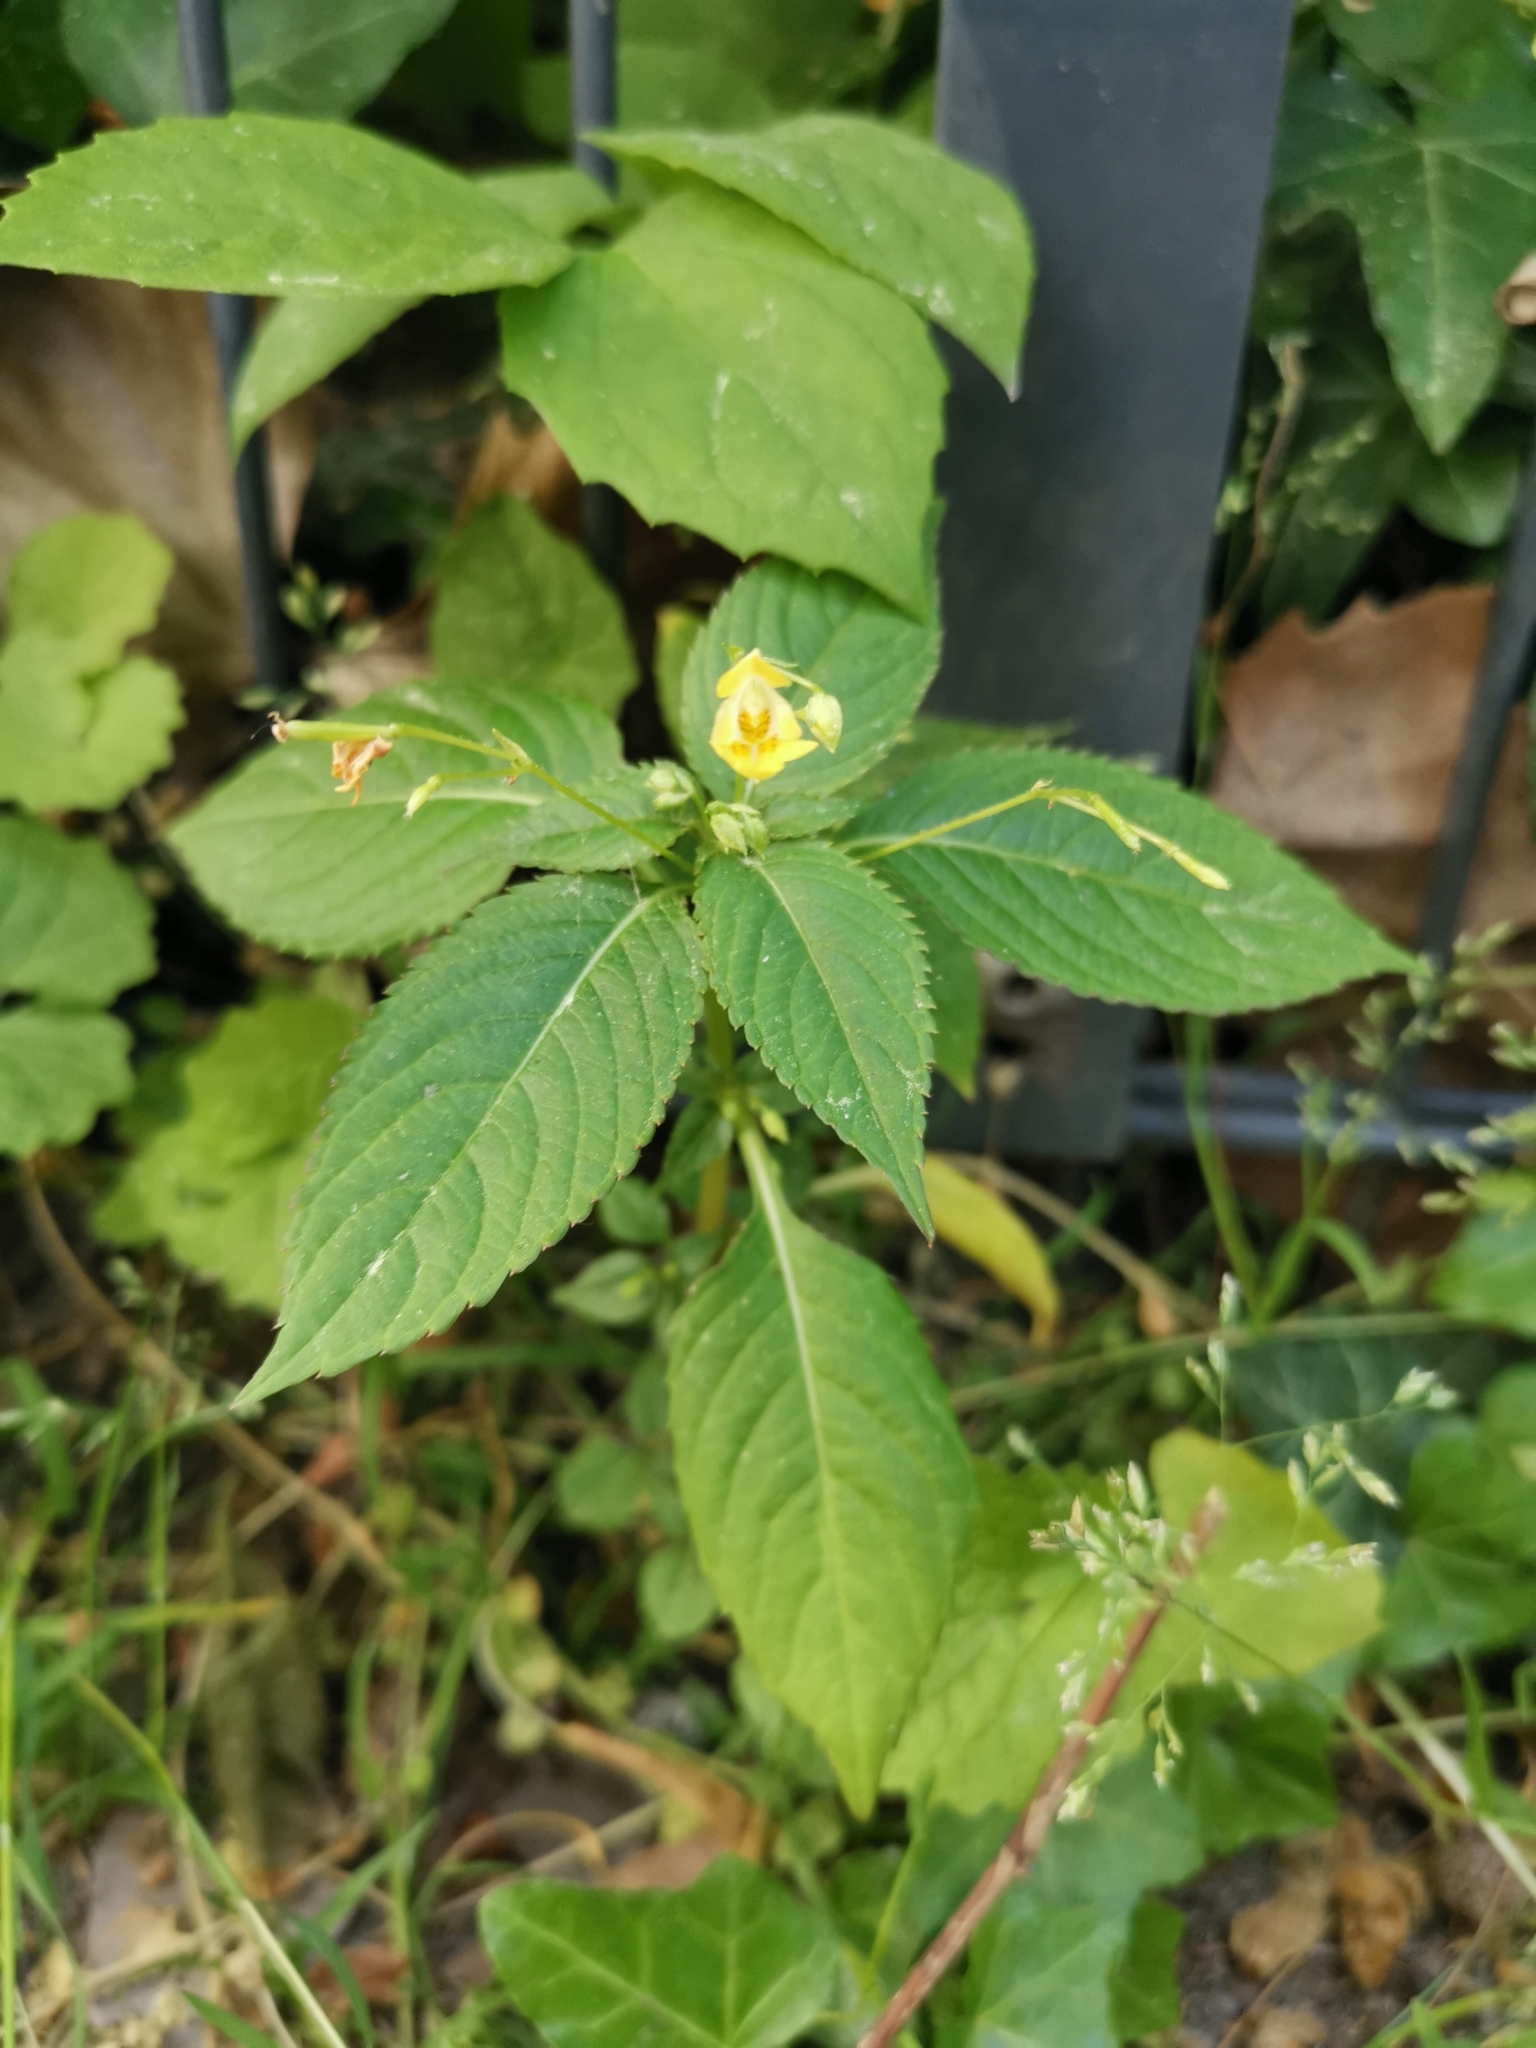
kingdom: Plantae
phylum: Tracheophyta
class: Magnoliopsida
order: Ericales
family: Balsaminaceae
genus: Impatiens
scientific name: Impatiens parviflora
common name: Small balsam
